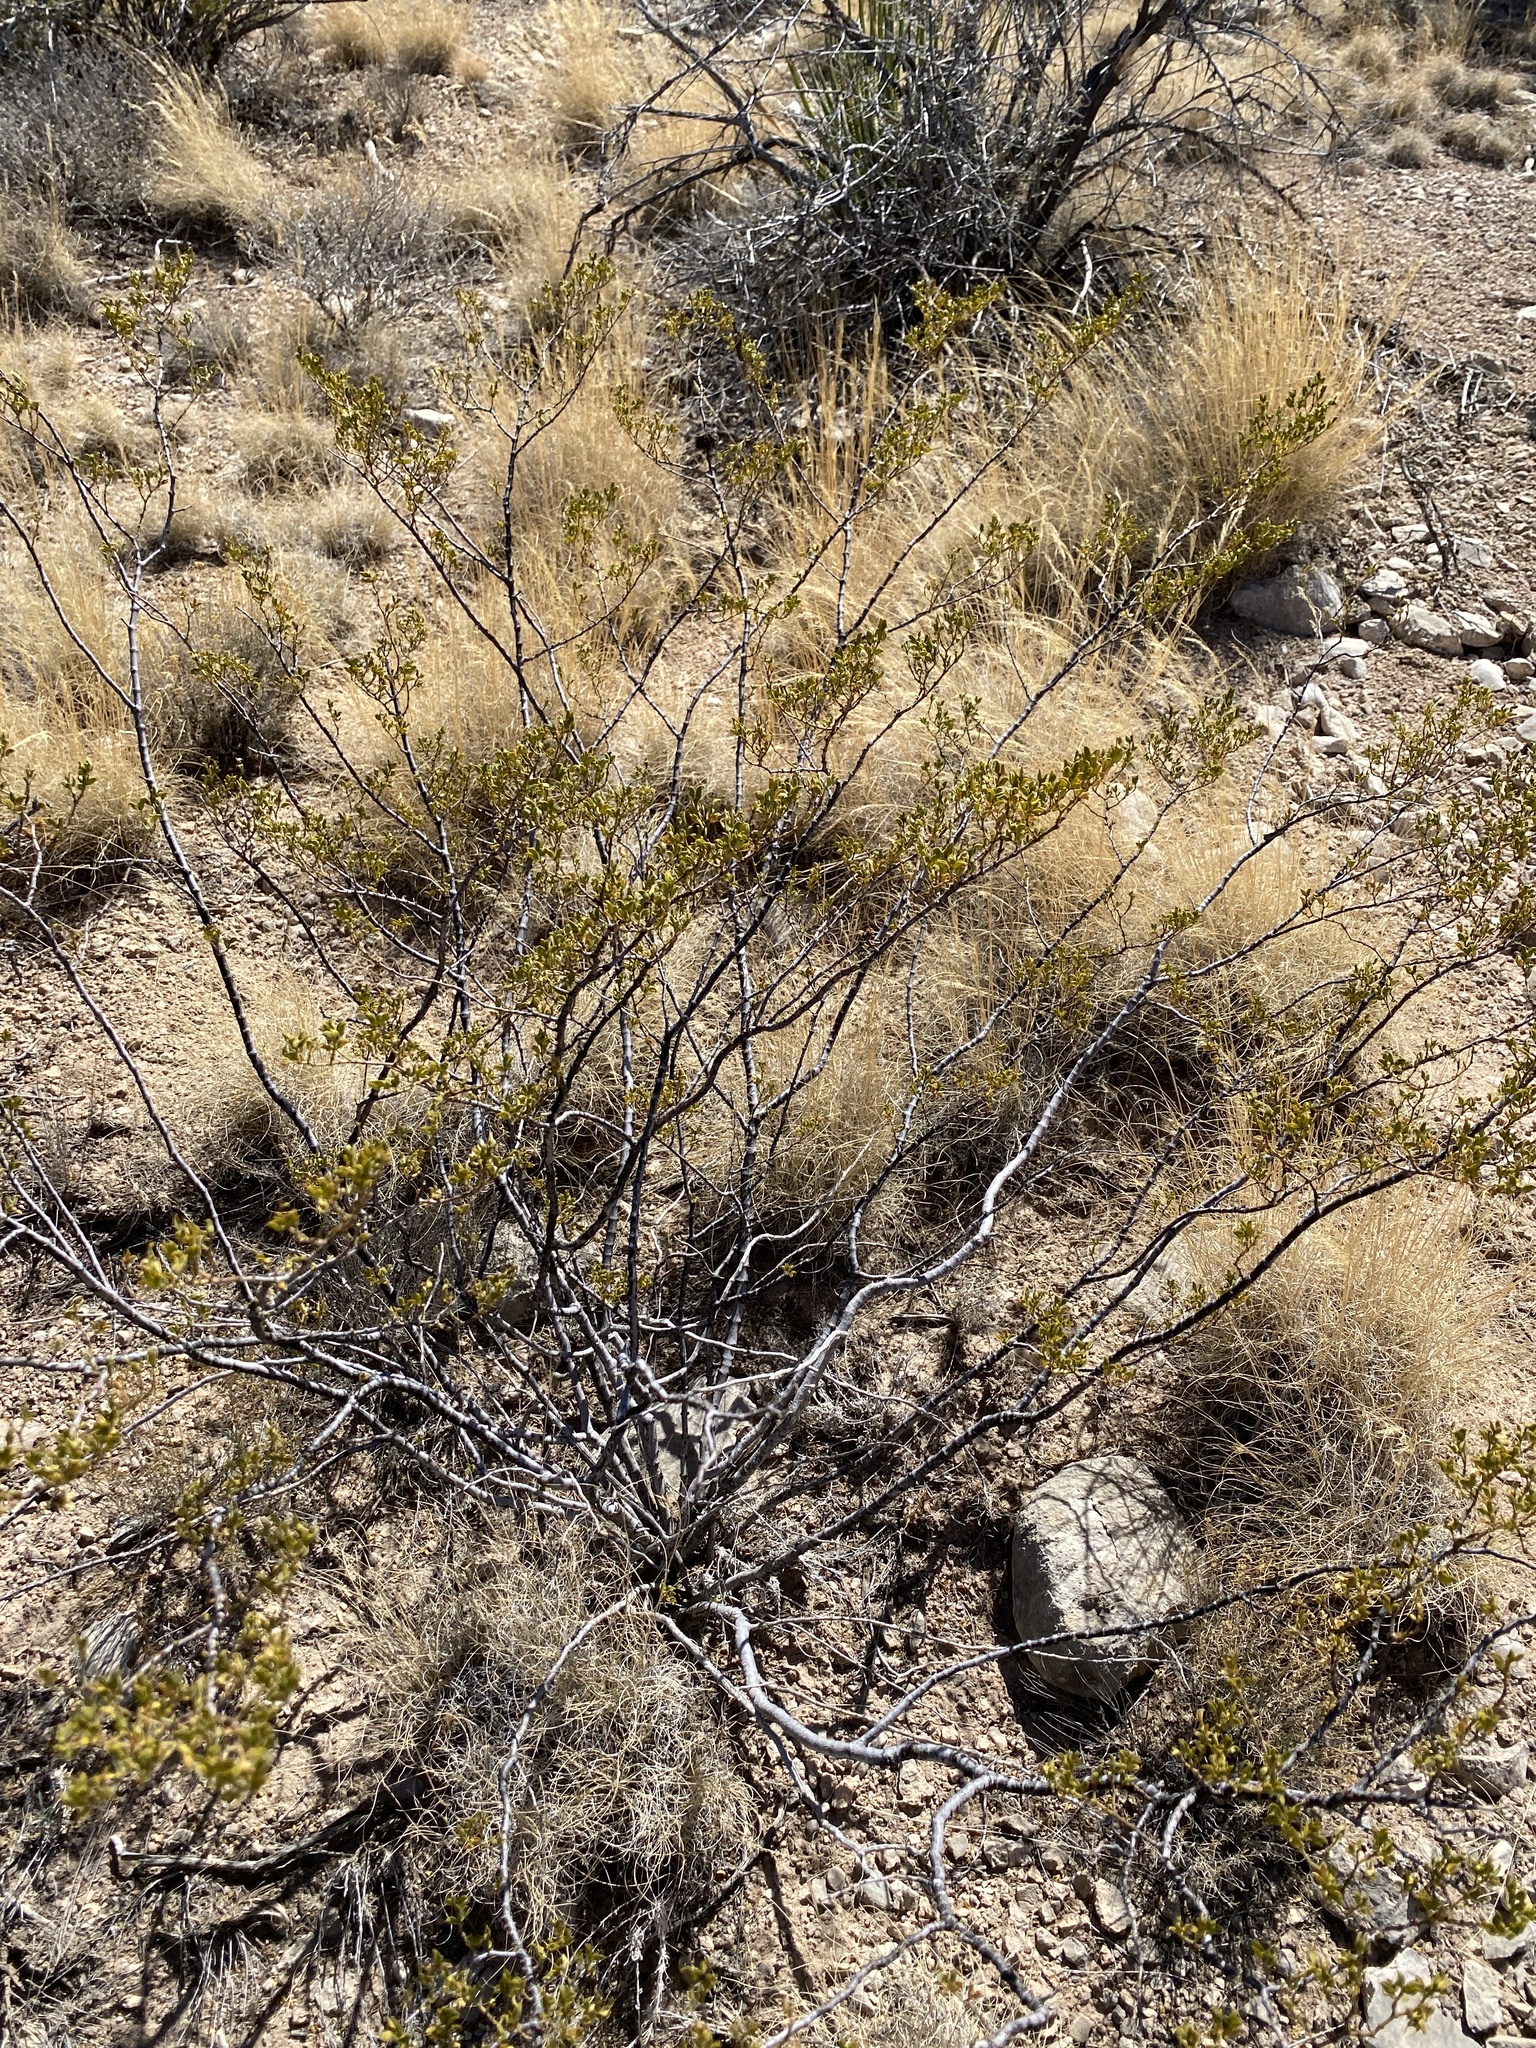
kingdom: Plantae
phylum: Tracheophyta
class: Magnoliopsida
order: Zygophyllales
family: Zygophyllaceae
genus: Larrea
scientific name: Larrea tridentata
